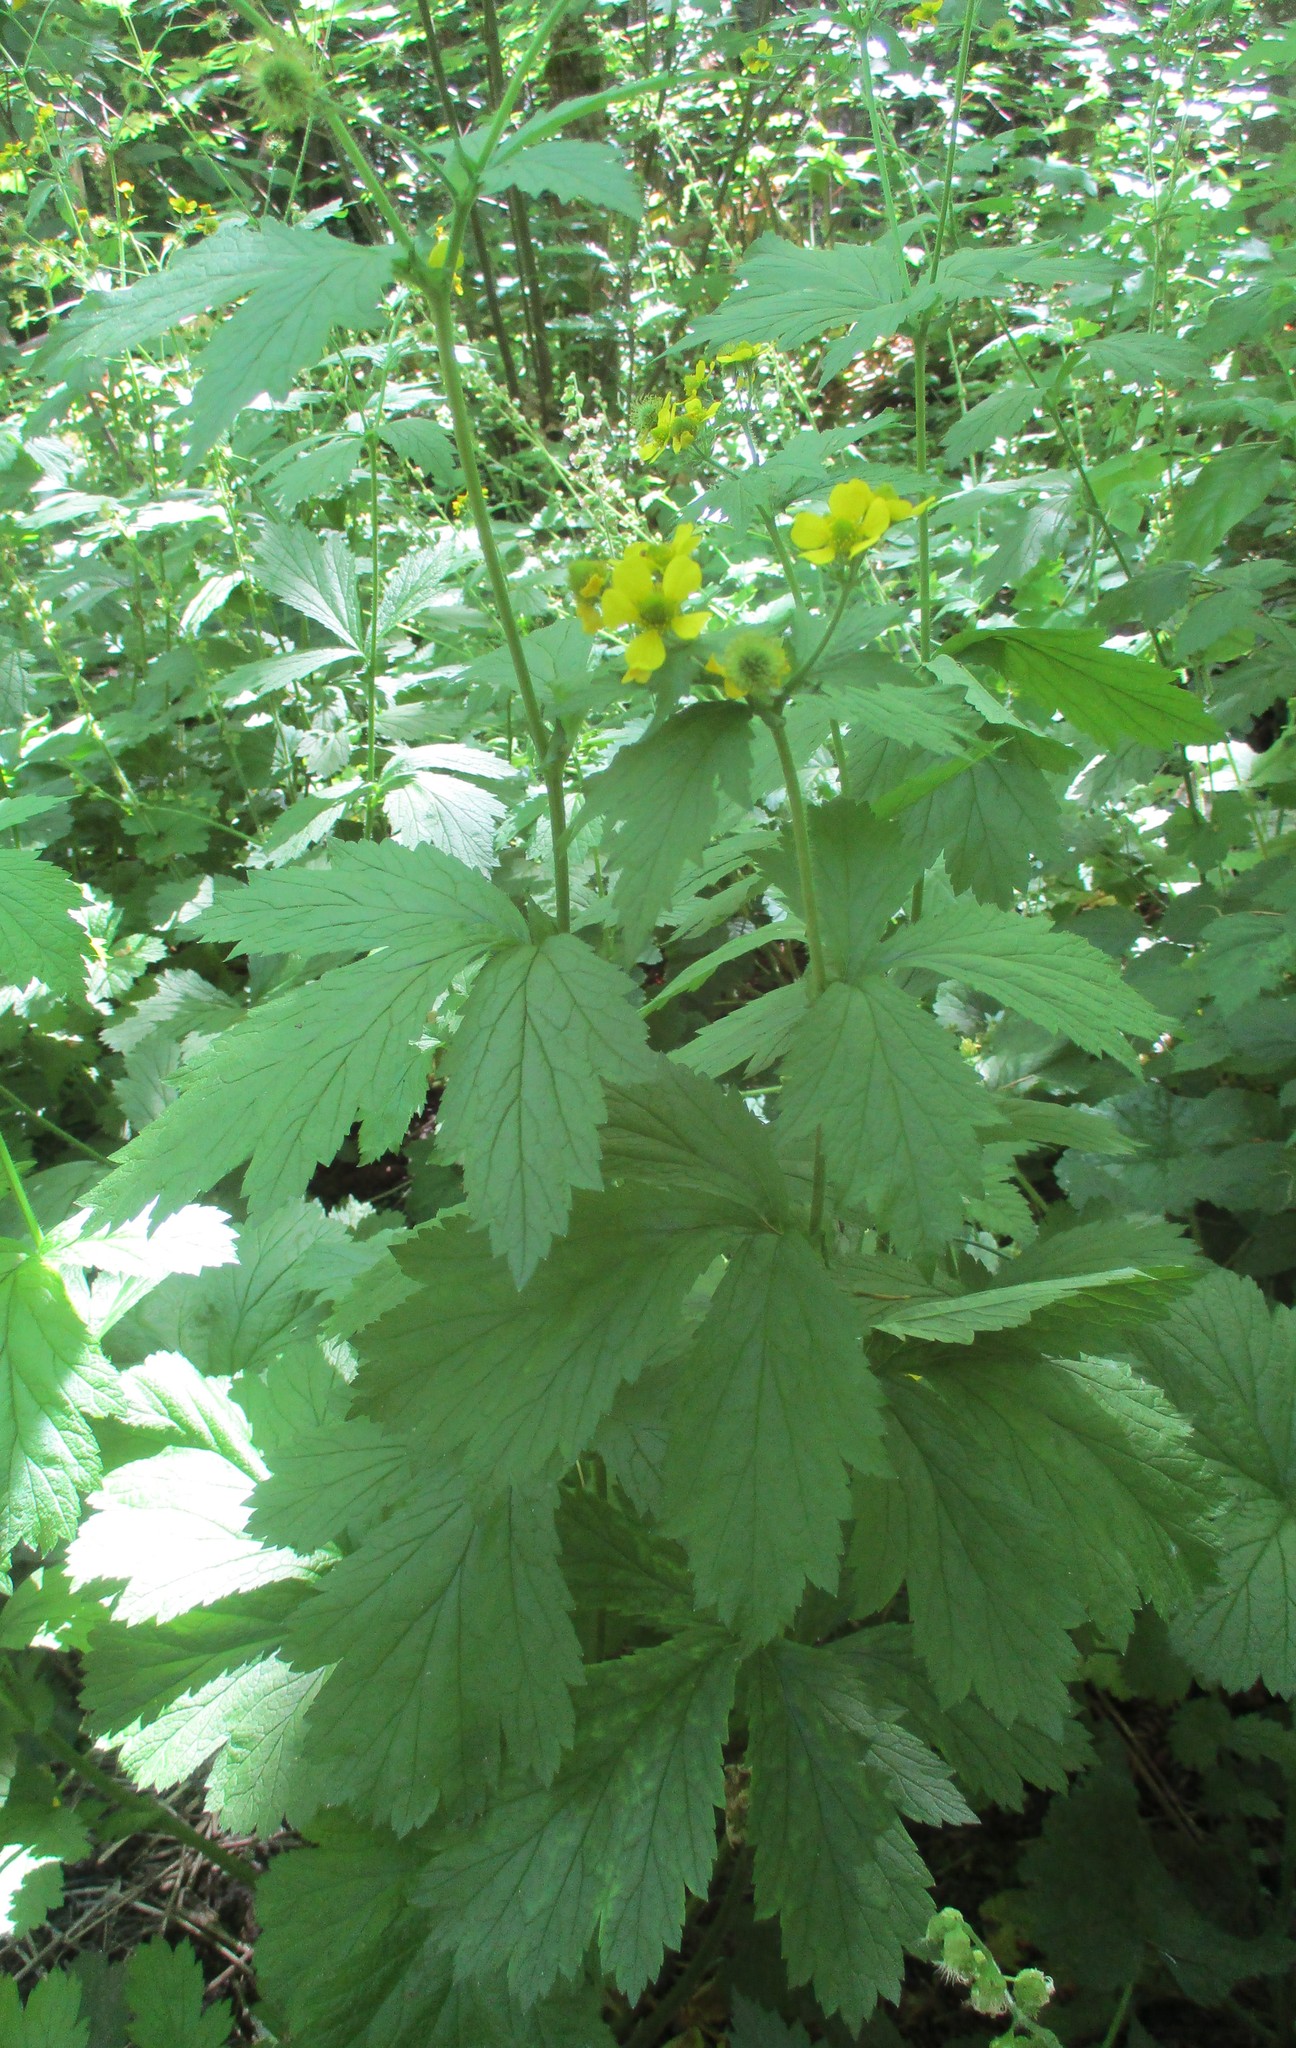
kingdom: Plantae
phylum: Tracheophyta
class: Magnoliopsida
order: Rosales
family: Rosaceae
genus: Geum
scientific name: Geum macrophyllum
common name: Large-leaved avens
